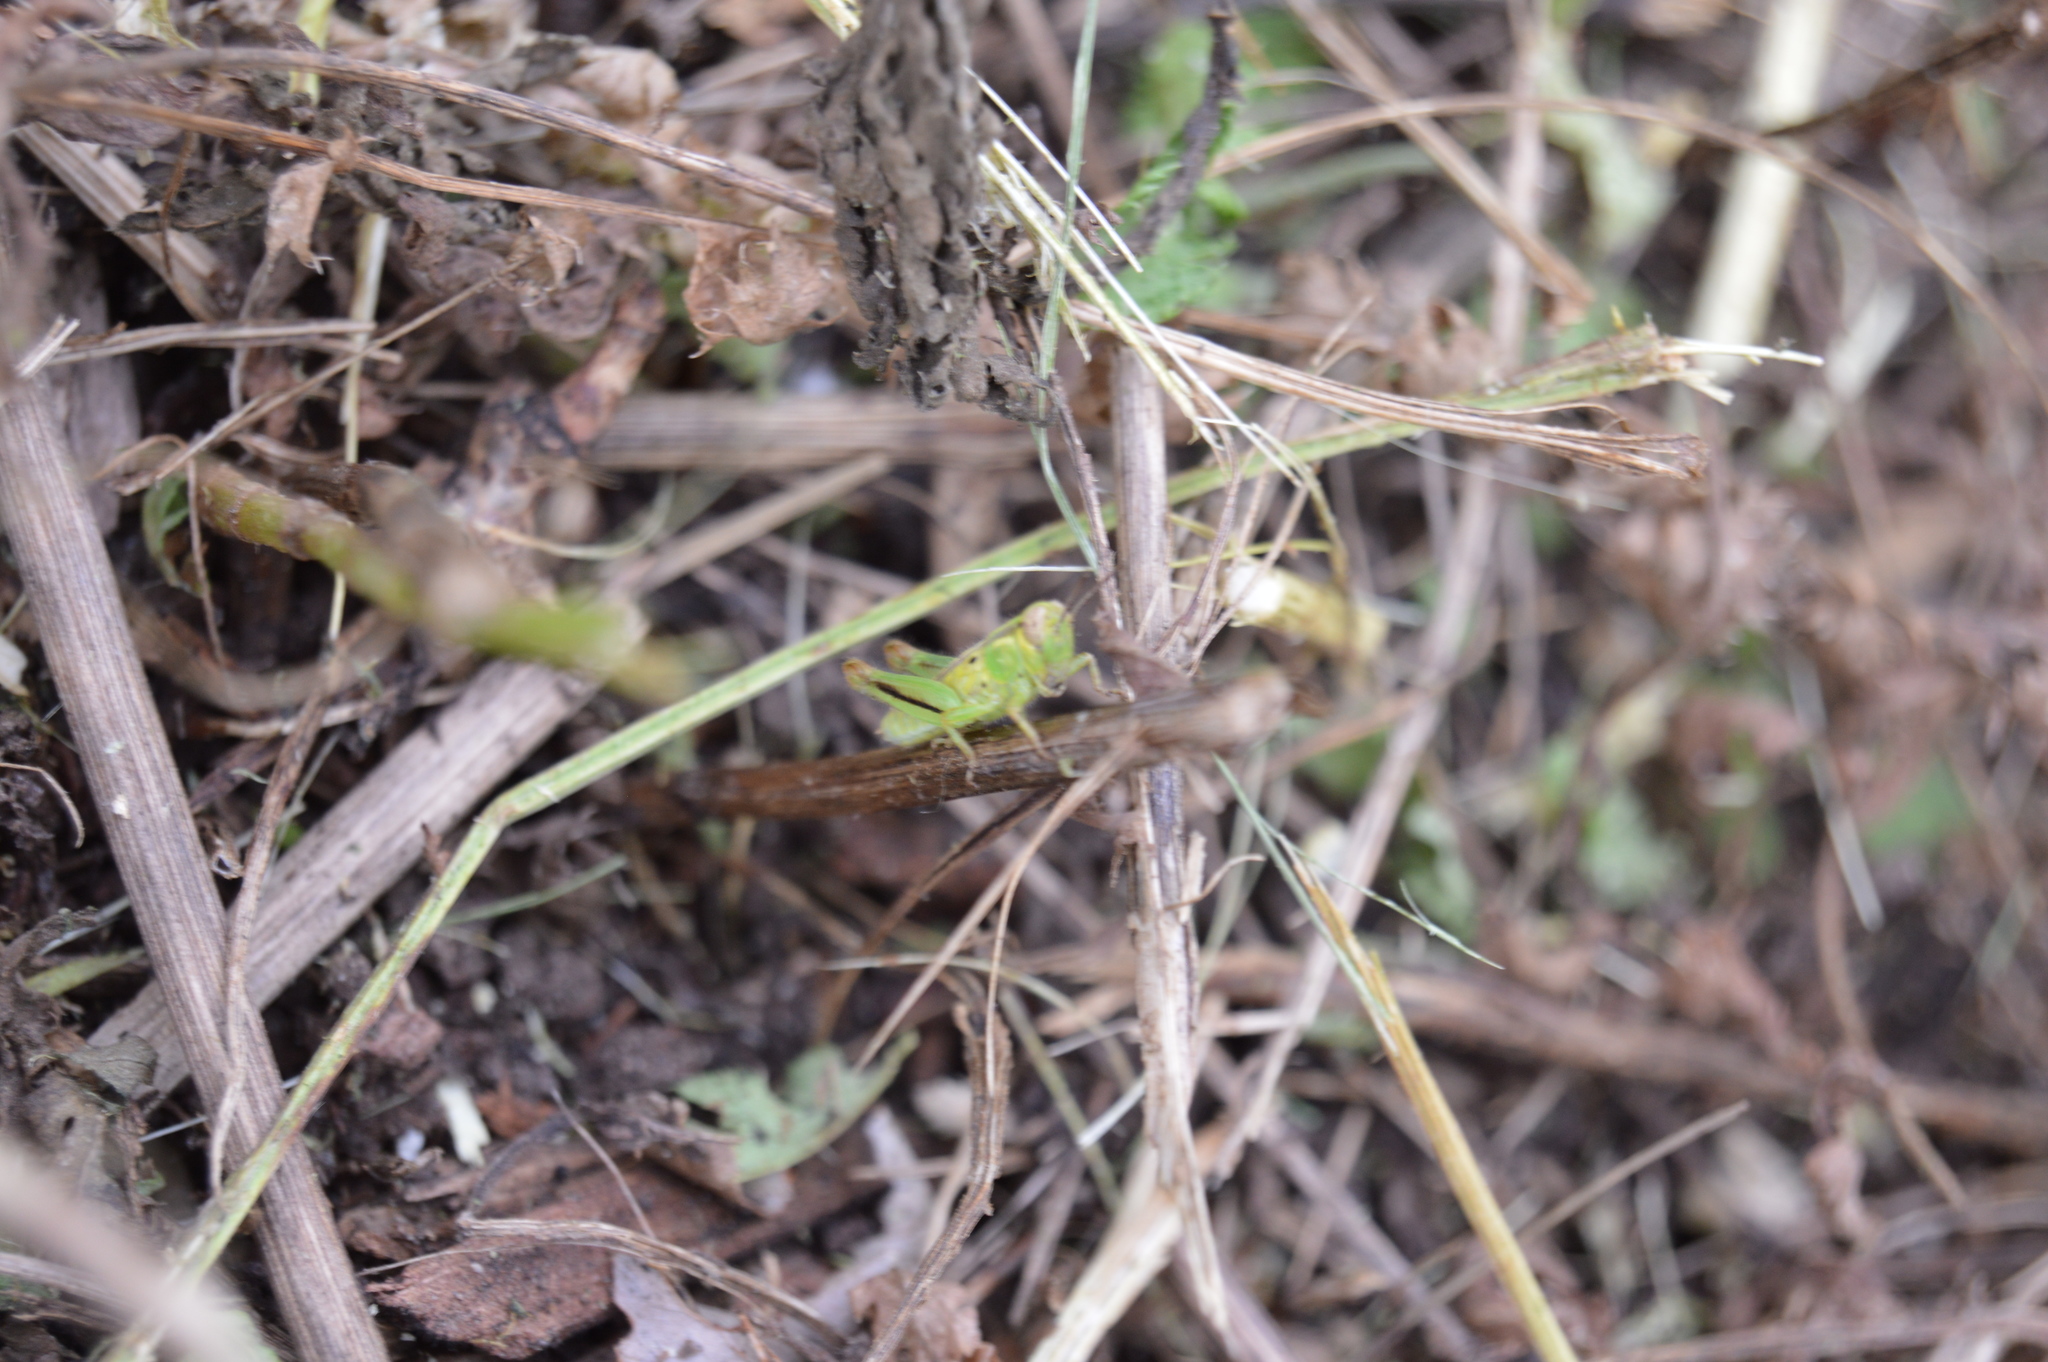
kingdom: Animalia
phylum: Arthropoda
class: Insecta
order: Orthoptera
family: Acrididae
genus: Melanoplus
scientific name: Melanoplus
